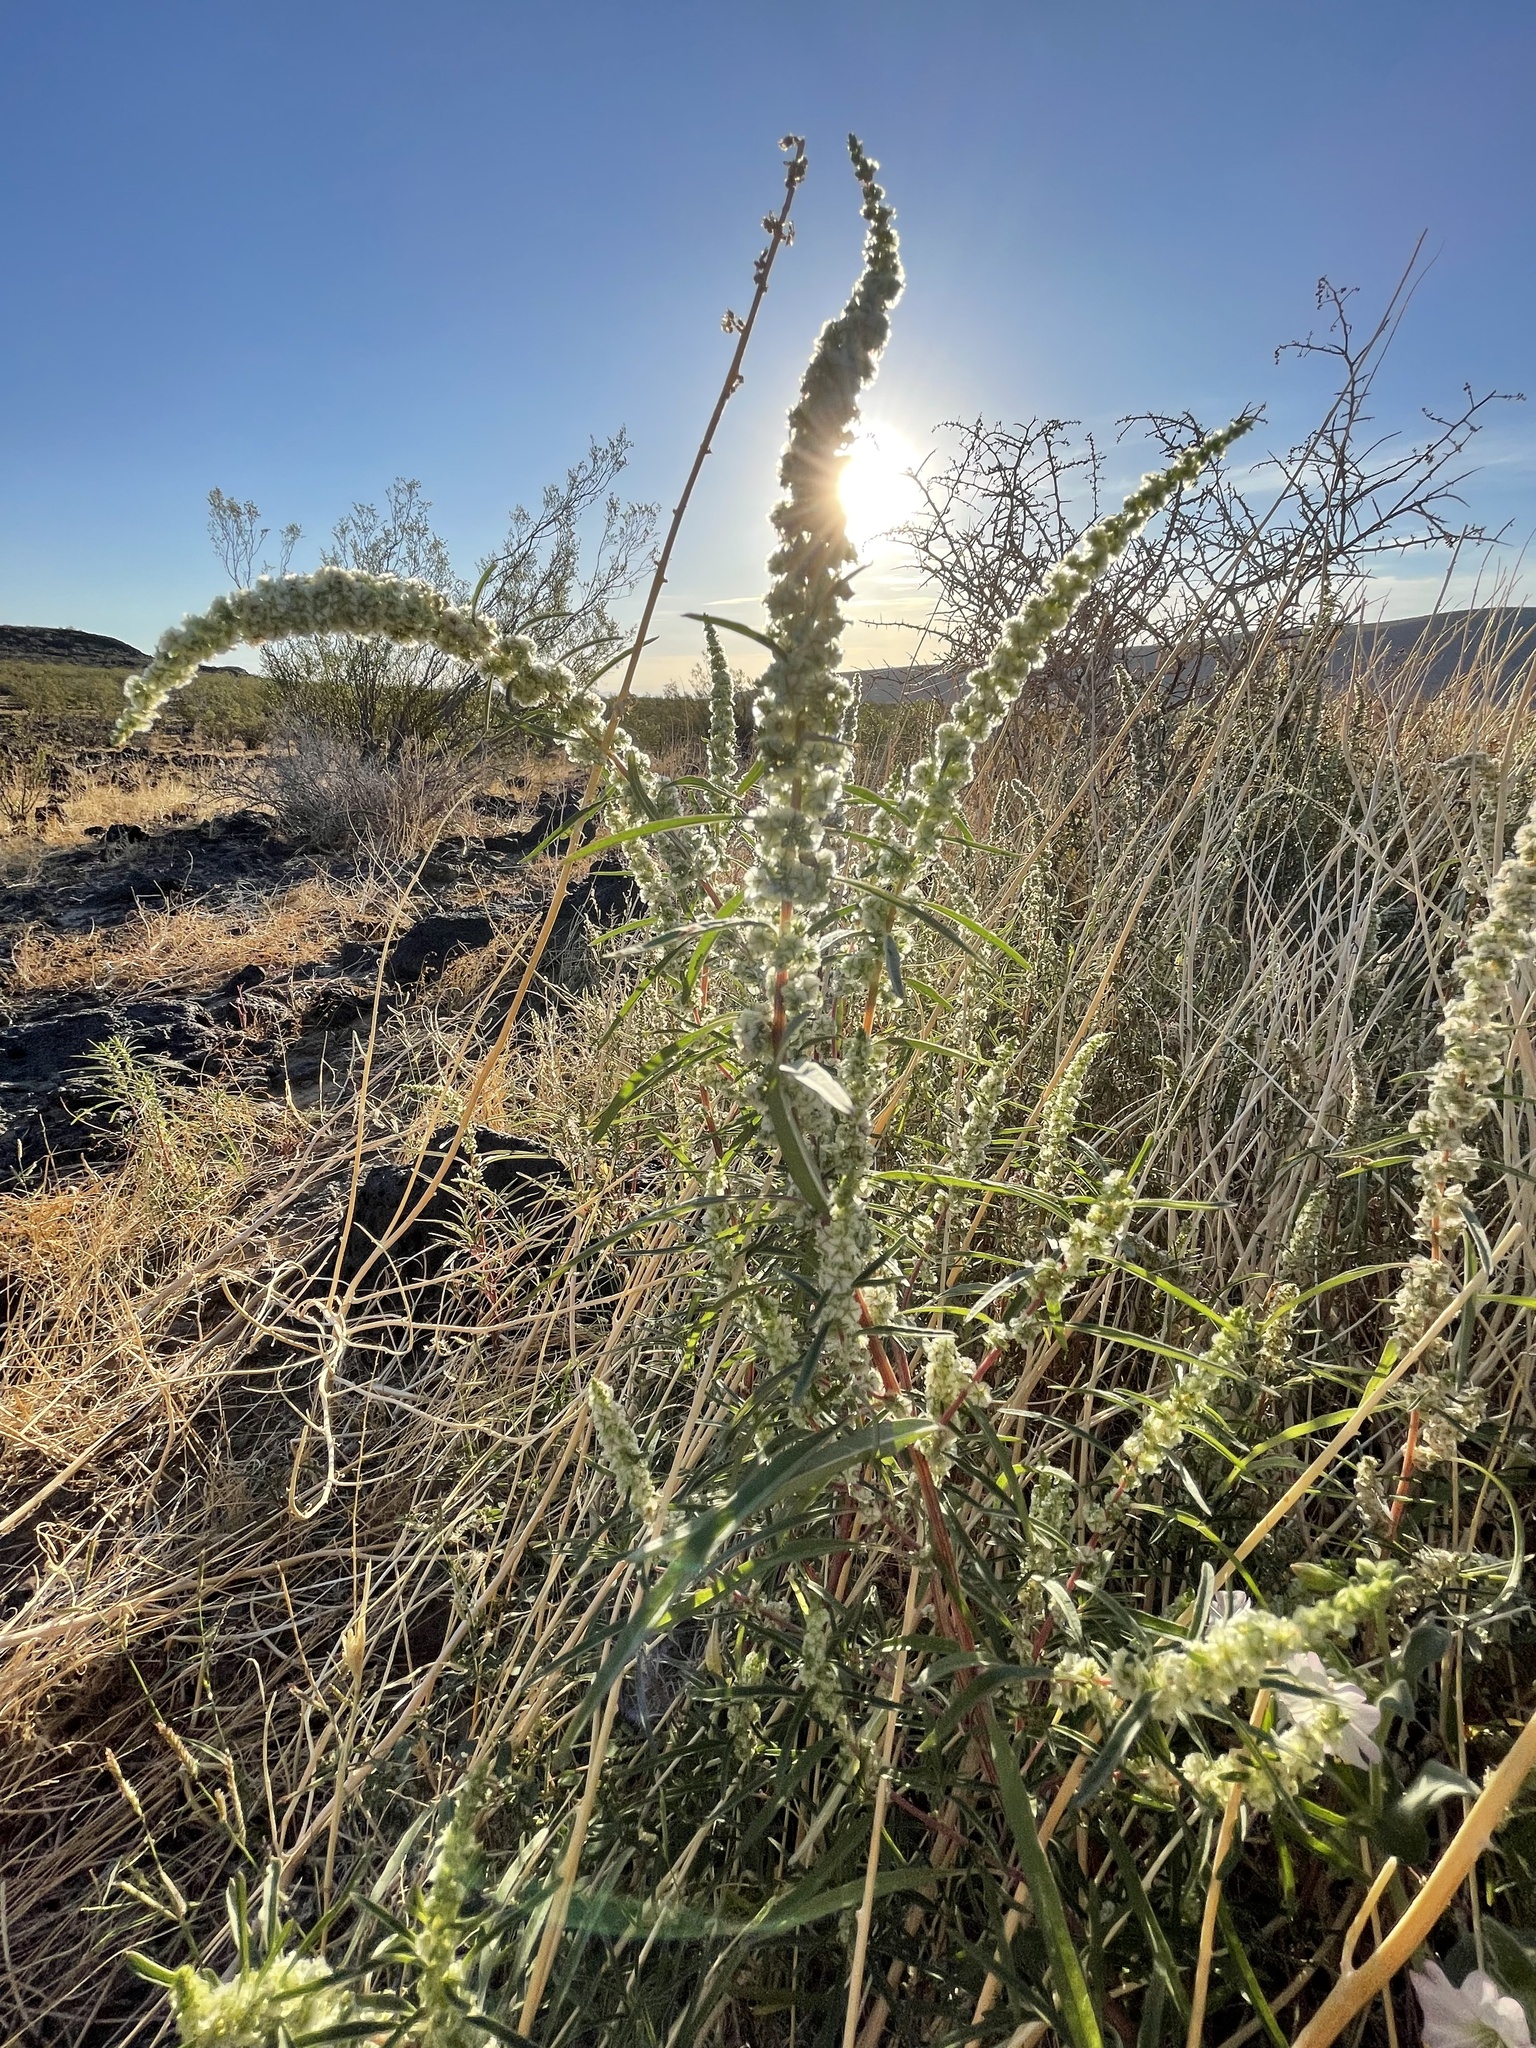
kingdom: Plantae
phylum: Tracheophyta
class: Magnoliopsida
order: Caryophyllales
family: Amaranthaceae
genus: Amaranthus
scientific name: Amaranthus fimbriatus
